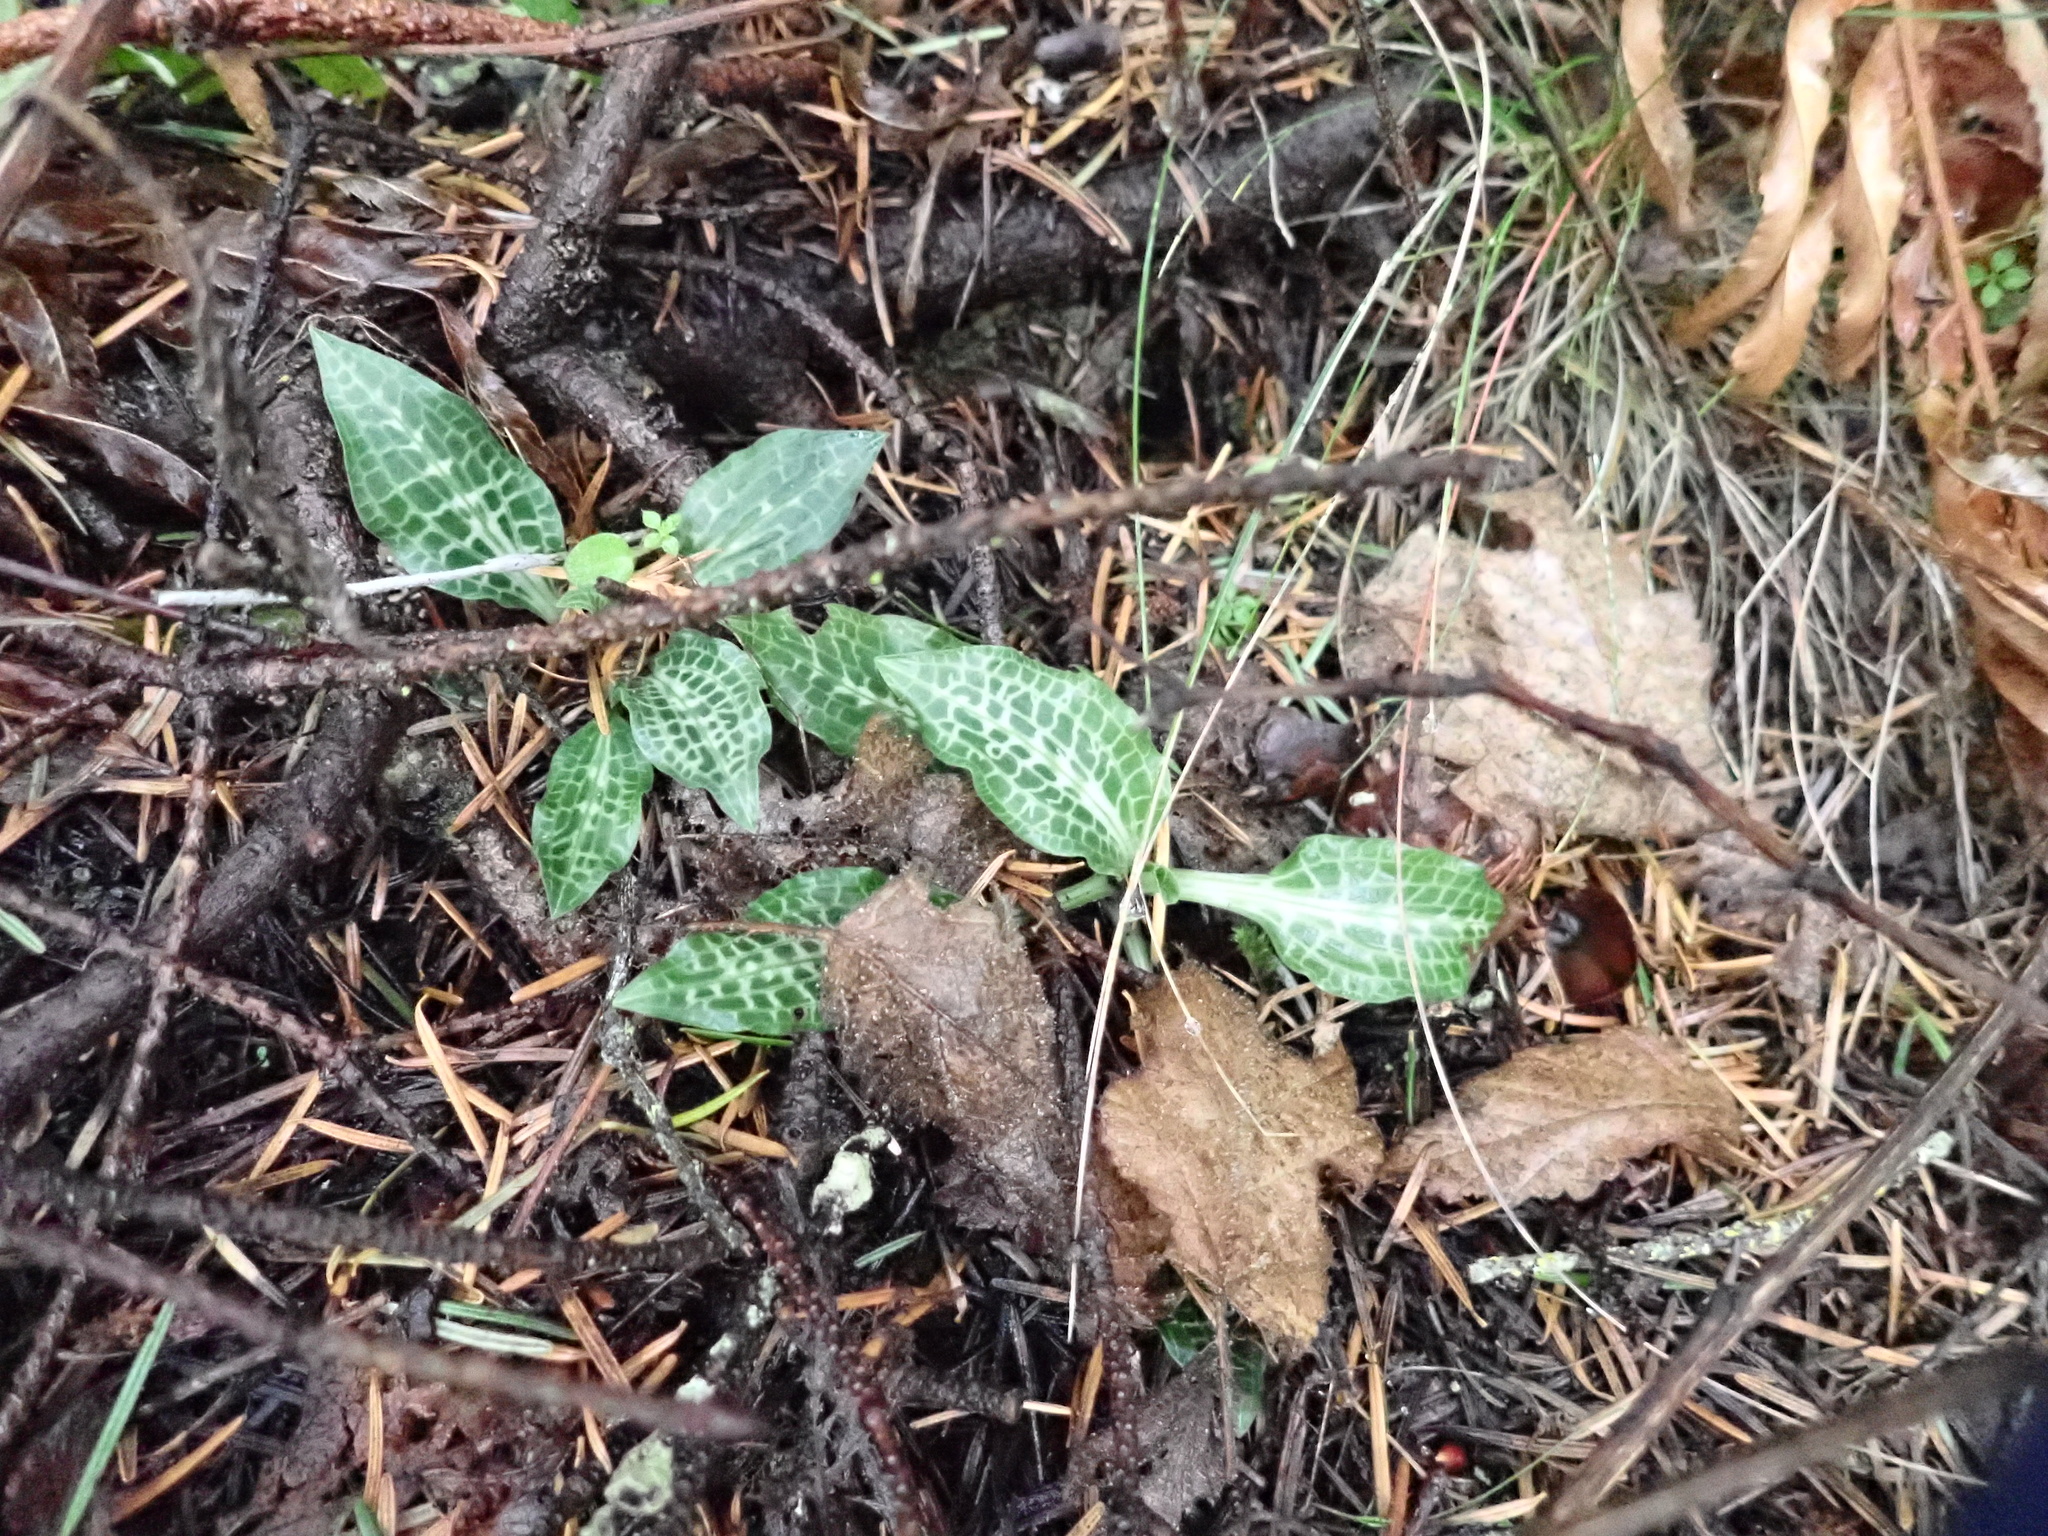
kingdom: Plantae
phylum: Tracheophyta
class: Liliopsida
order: Asparagales
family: Orchidaceae
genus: Goodyera
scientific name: Goodyera oblongifolia
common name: Giant rattlesnake-plantain
